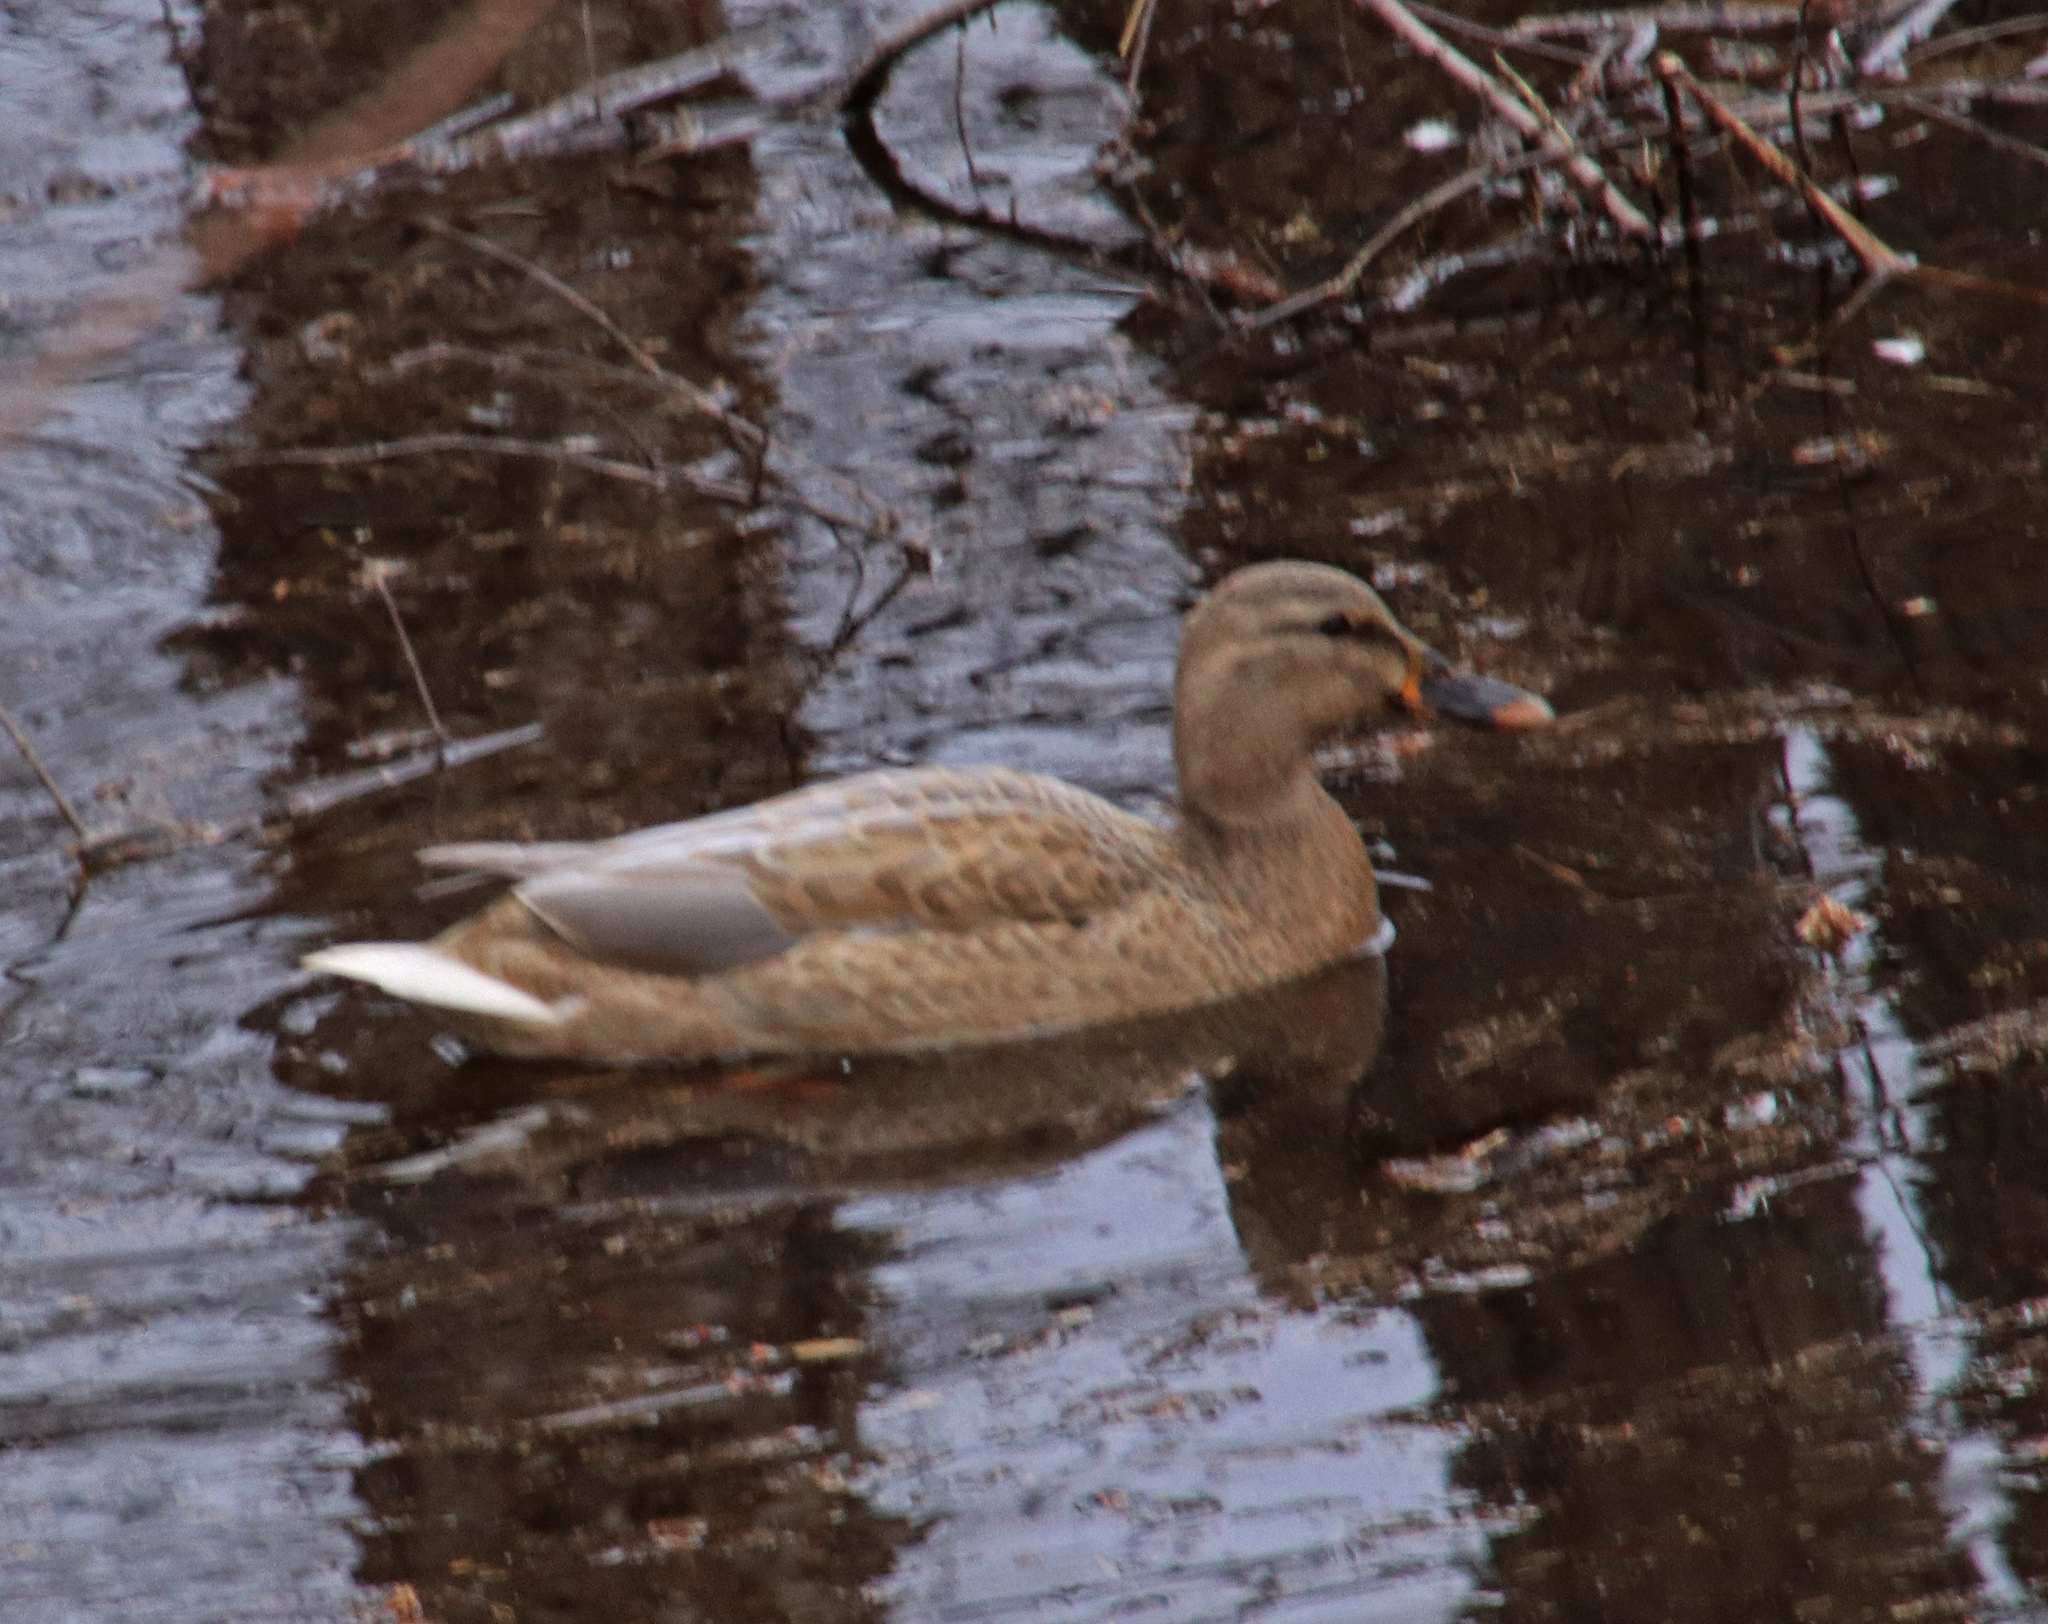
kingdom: Animalia
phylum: Chordata
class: Aves
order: Anseriformes
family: Anatidae
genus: Anas
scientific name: Anas platyrhynchos
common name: Mallard
